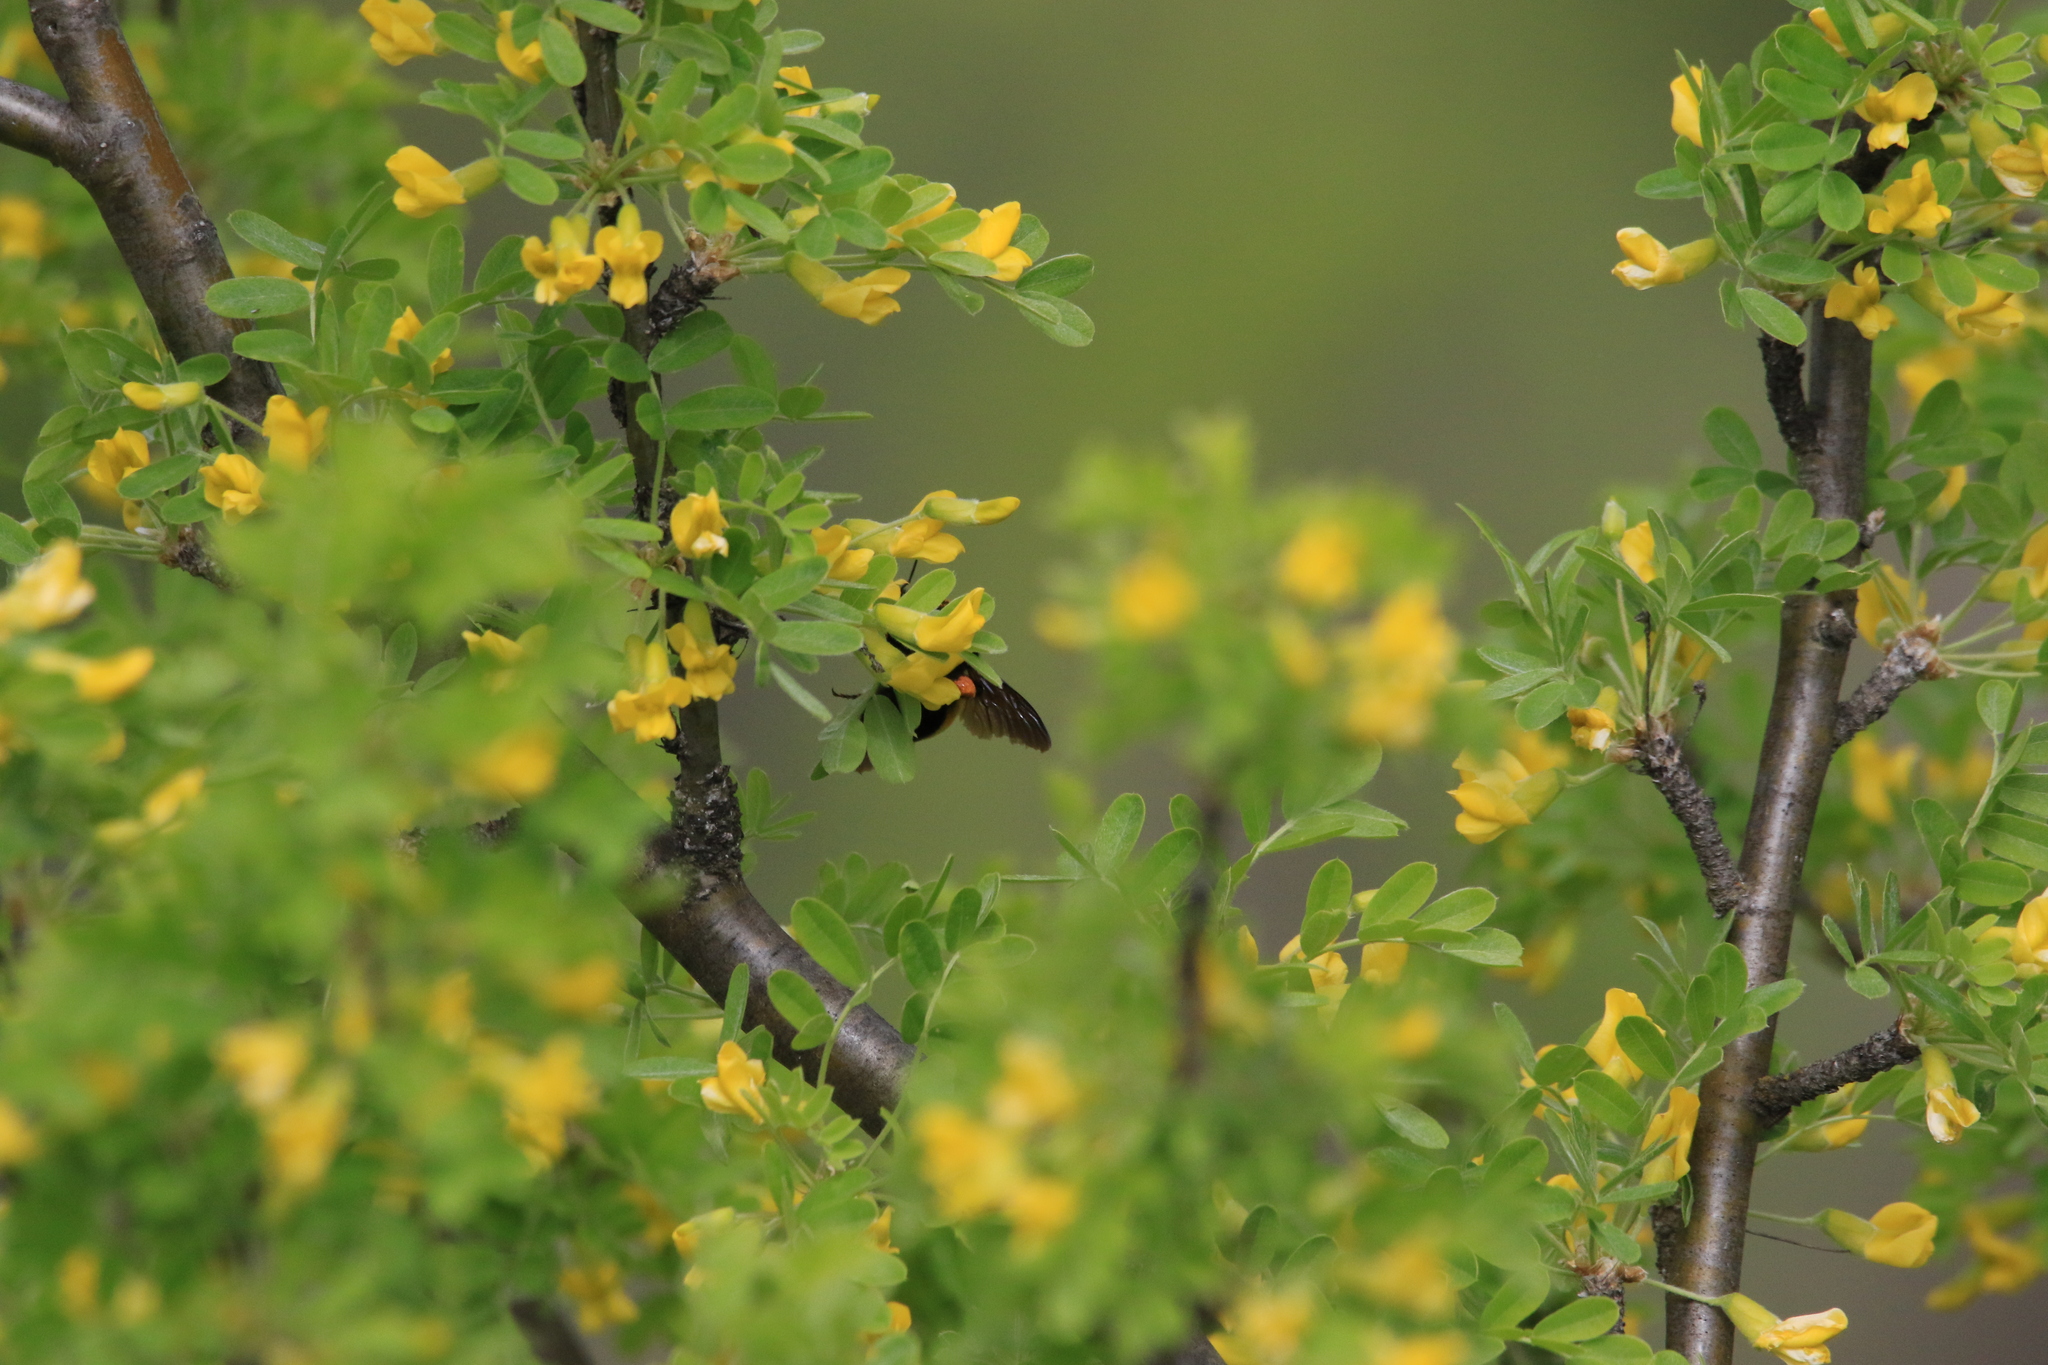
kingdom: Plantae
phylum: Tracheophyta
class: Magnoliopsida
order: Fabales
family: Fabaceae
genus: Caragana
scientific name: Caragana arborescens
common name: Siberian peashrub
